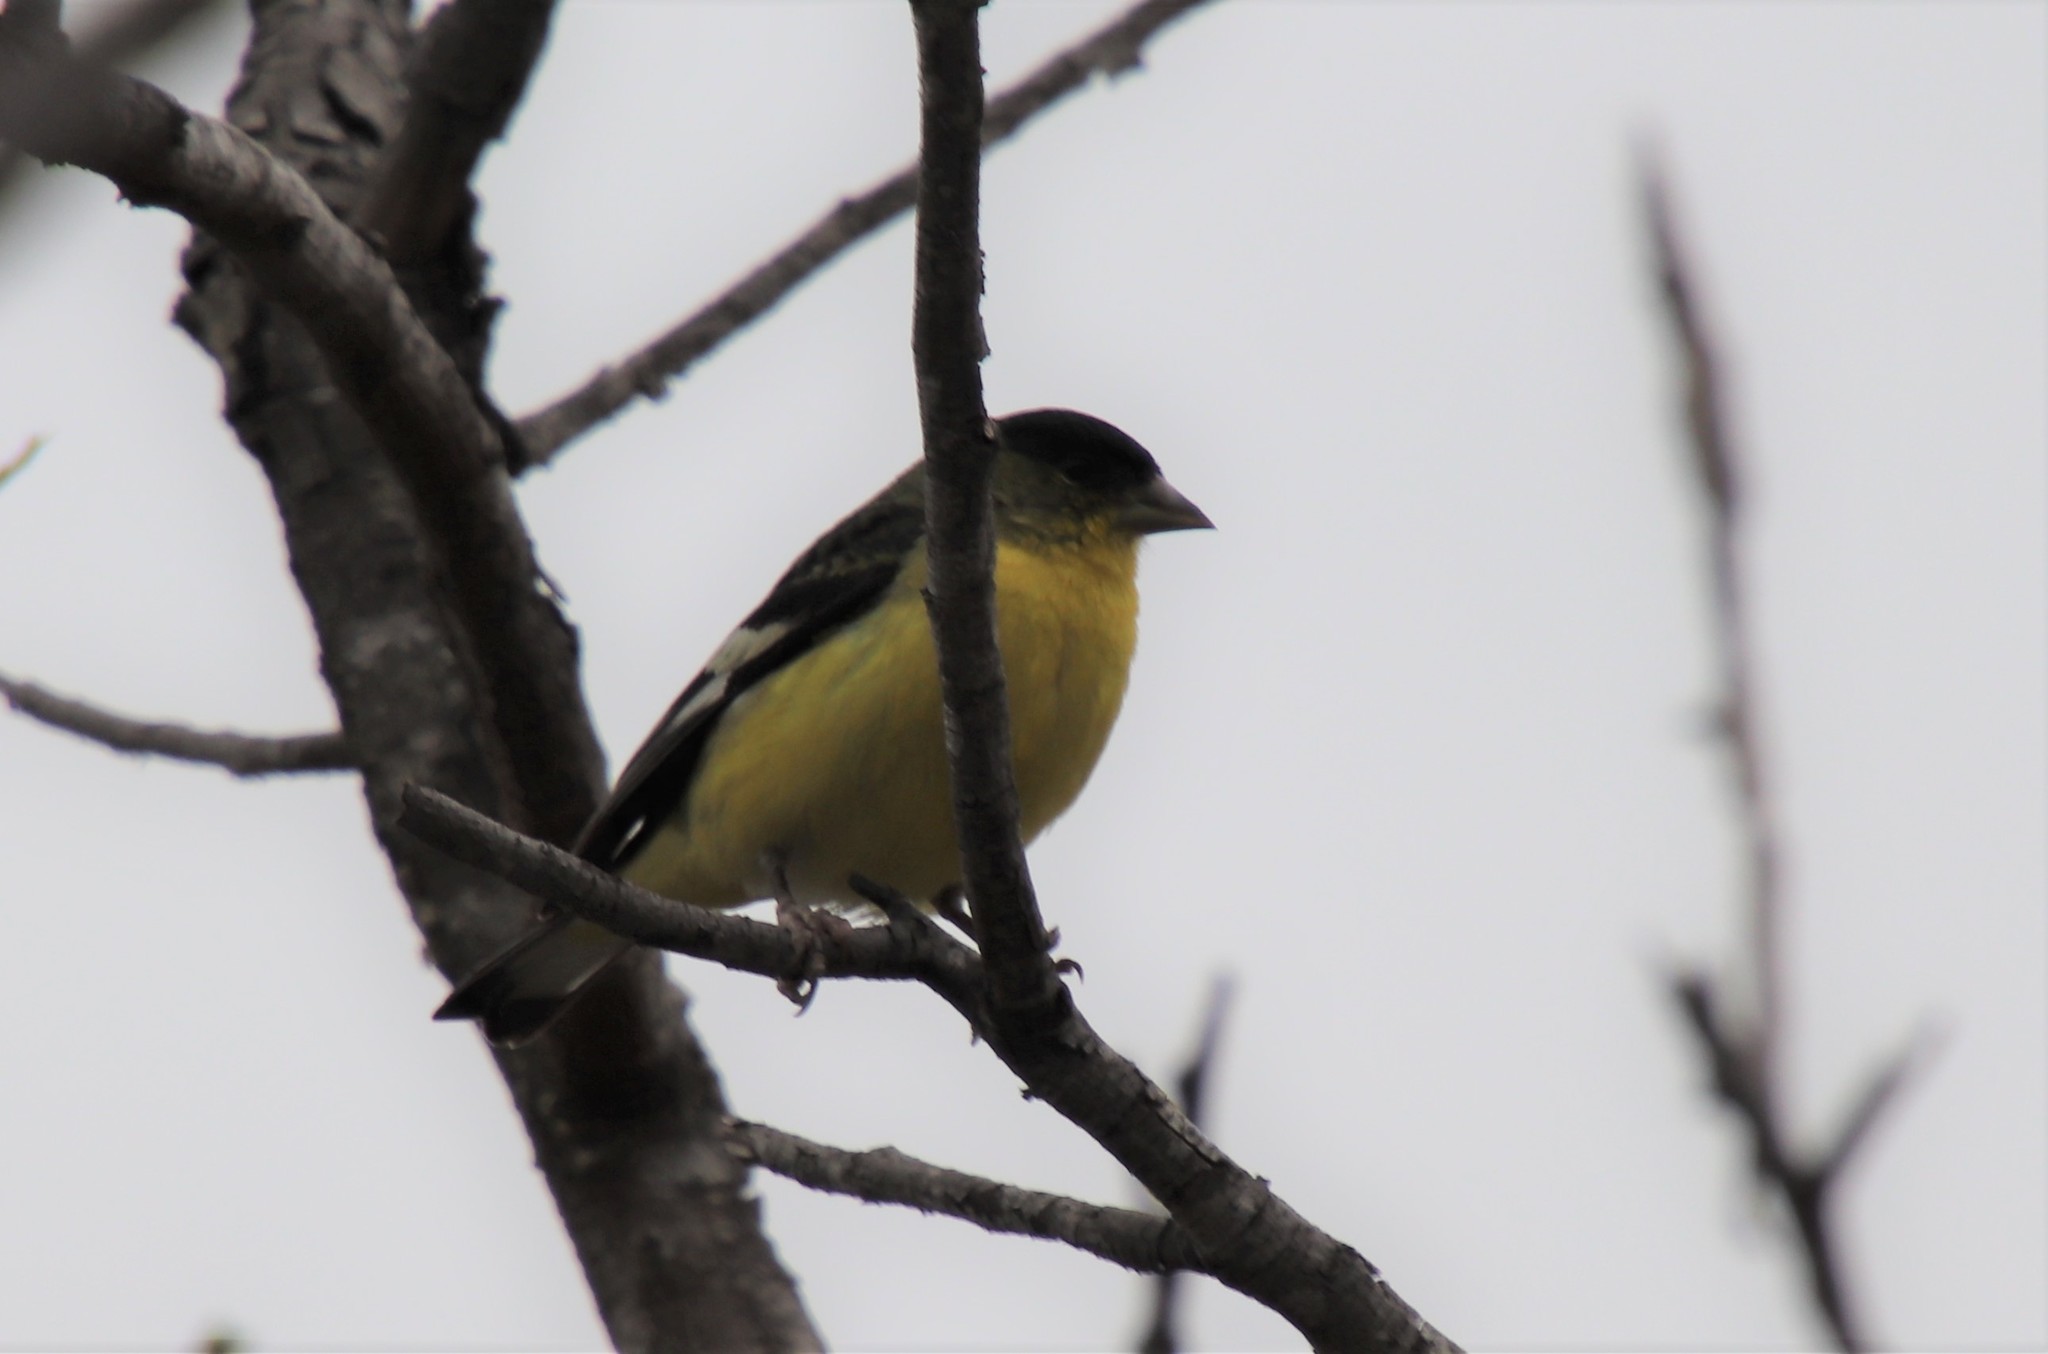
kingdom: Animalia
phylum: Chordata
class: Aves
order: Passeriformes
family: Fringillidae
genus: Spinus
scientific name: Spinus psaltria
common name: Lesser goldfinch
